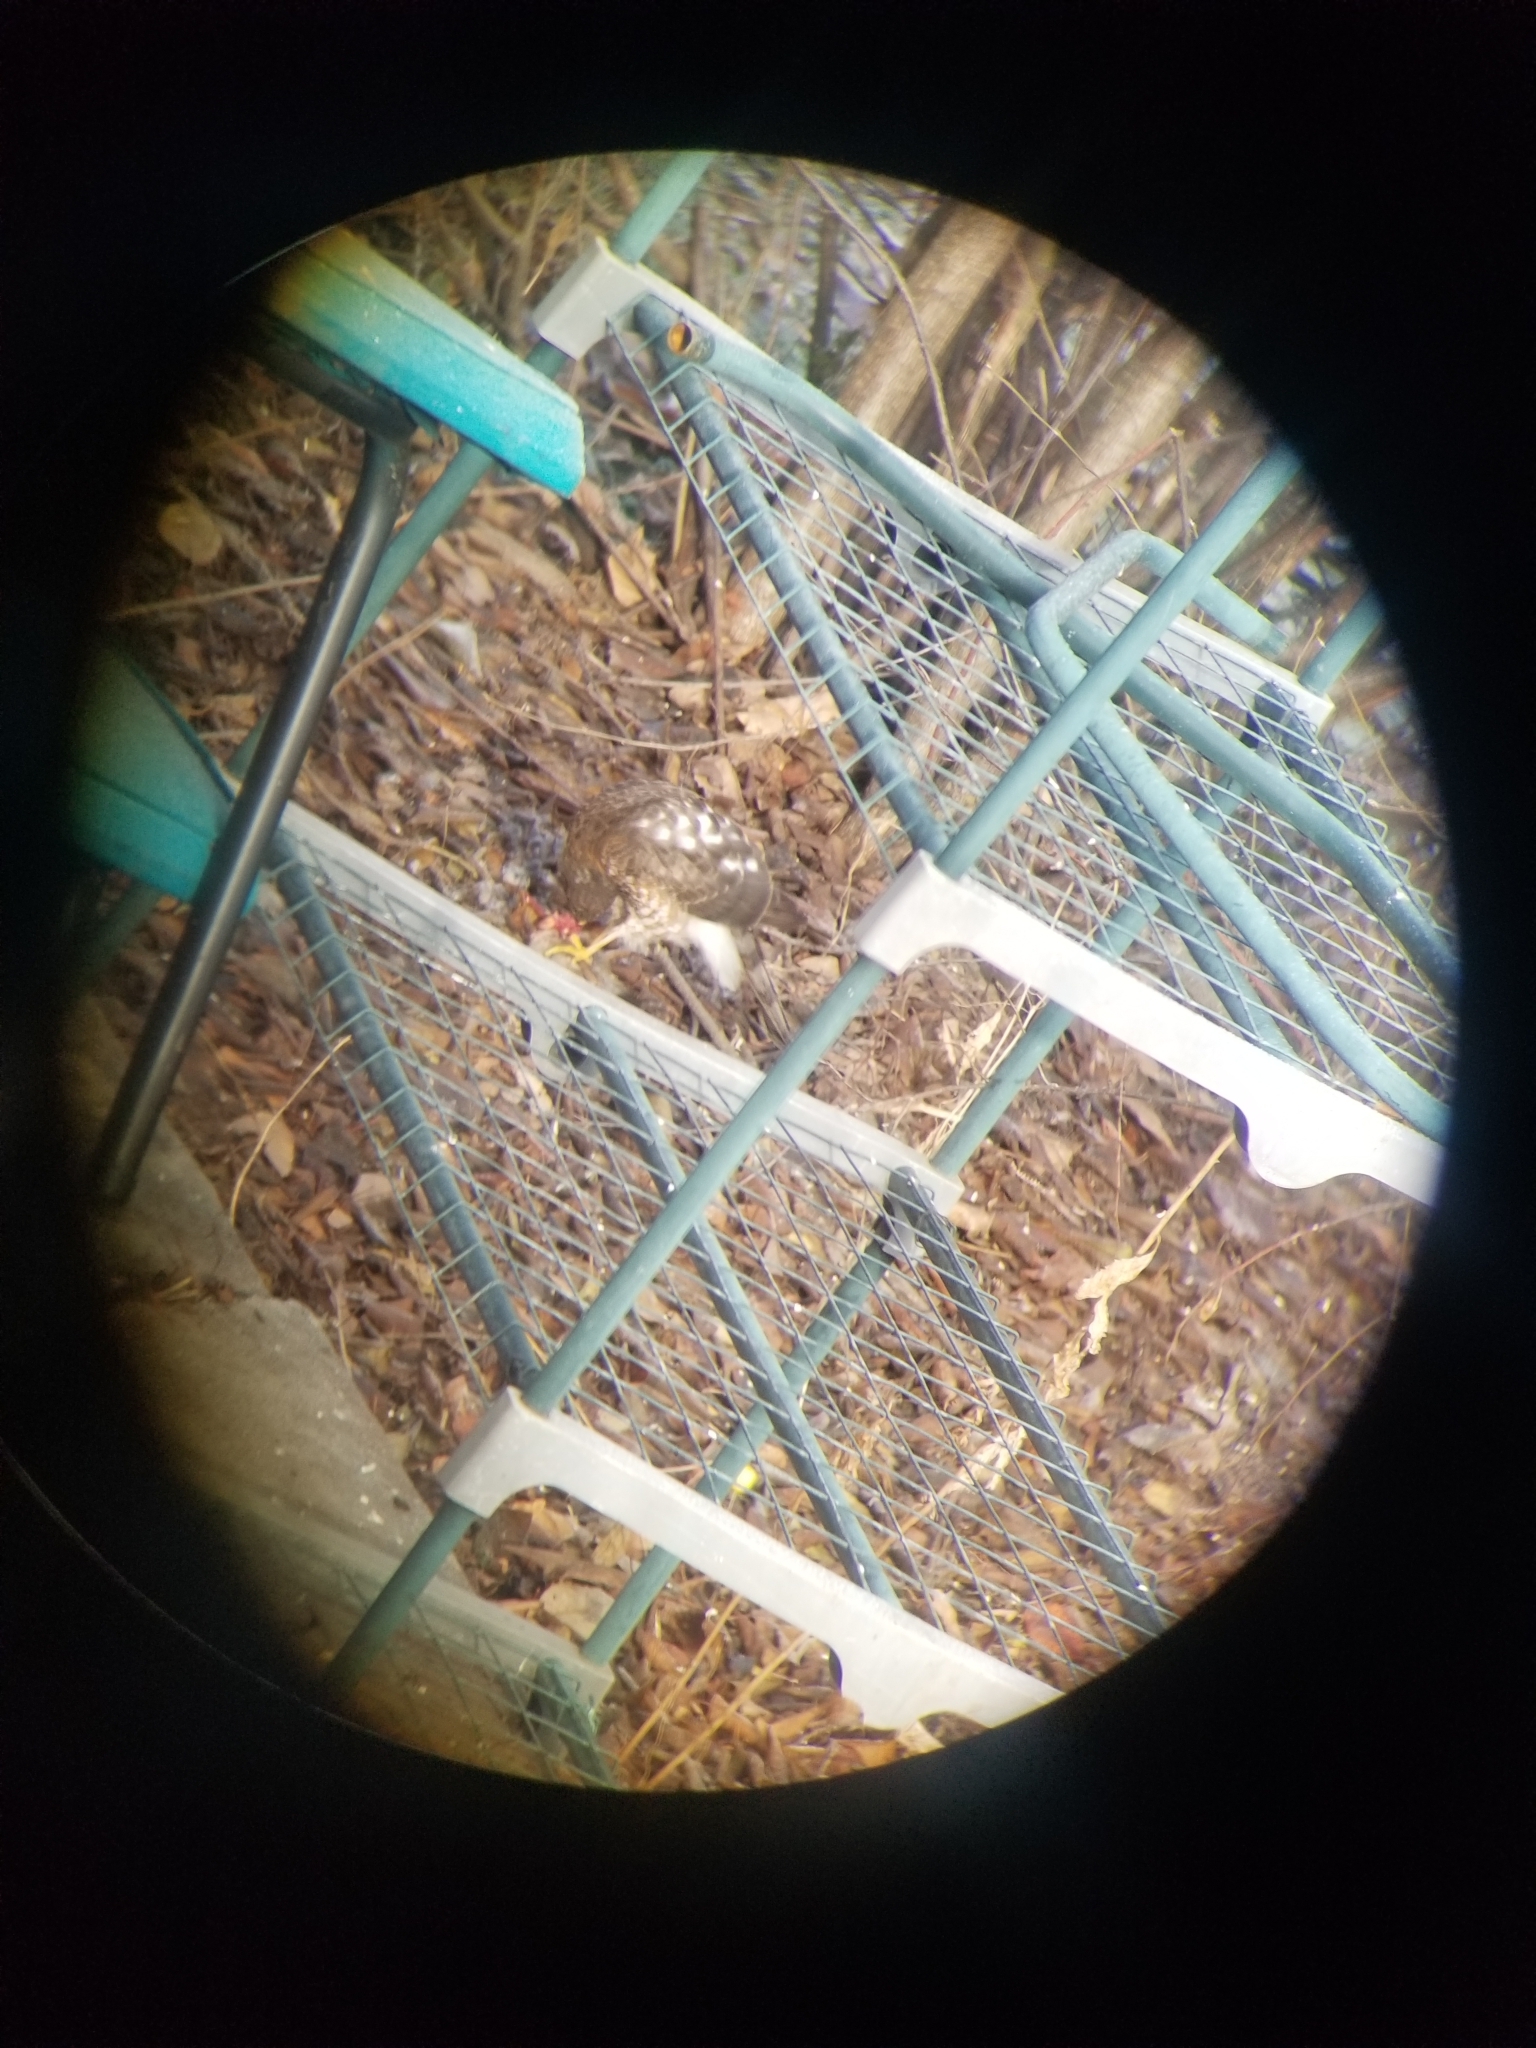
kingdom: Animalia
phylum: Chordata
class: Aves
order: Accipitriformes
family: Accipitridae
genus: Accipiter
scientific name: Accipiter striatus
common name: Sharp-shinned hawk
